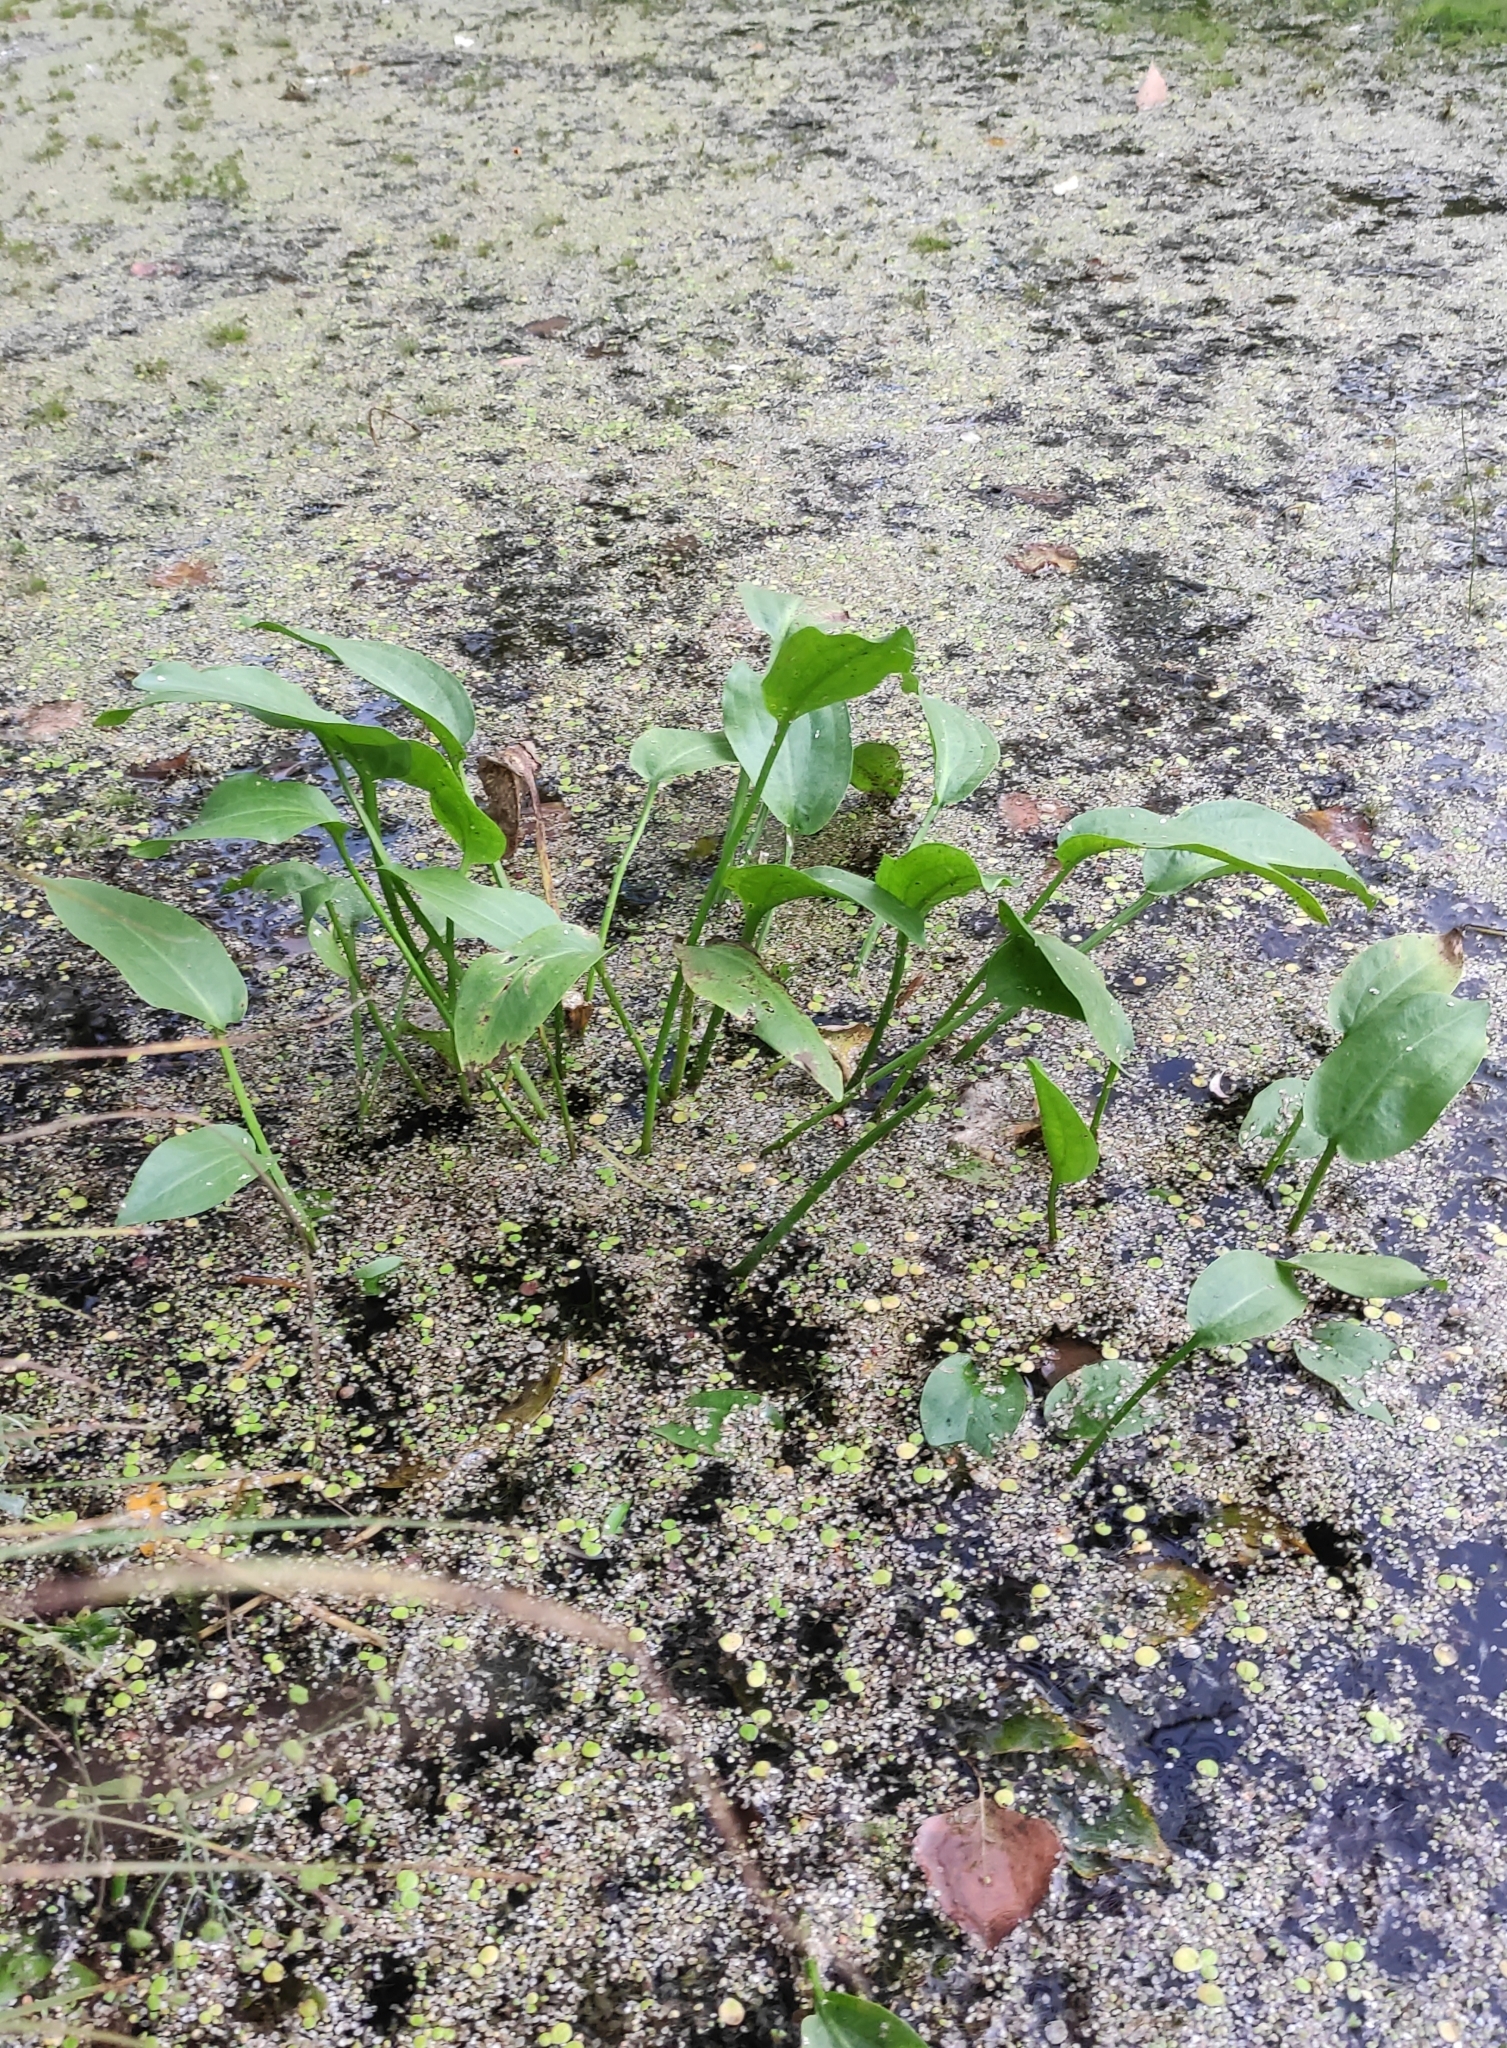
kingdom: Plantae
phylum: Tracheophyta
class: Liliopsida
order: Alismatales
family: Alismataceae
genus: Alisma
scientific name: Alisma plantago-aquatica
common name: Water-plantain
